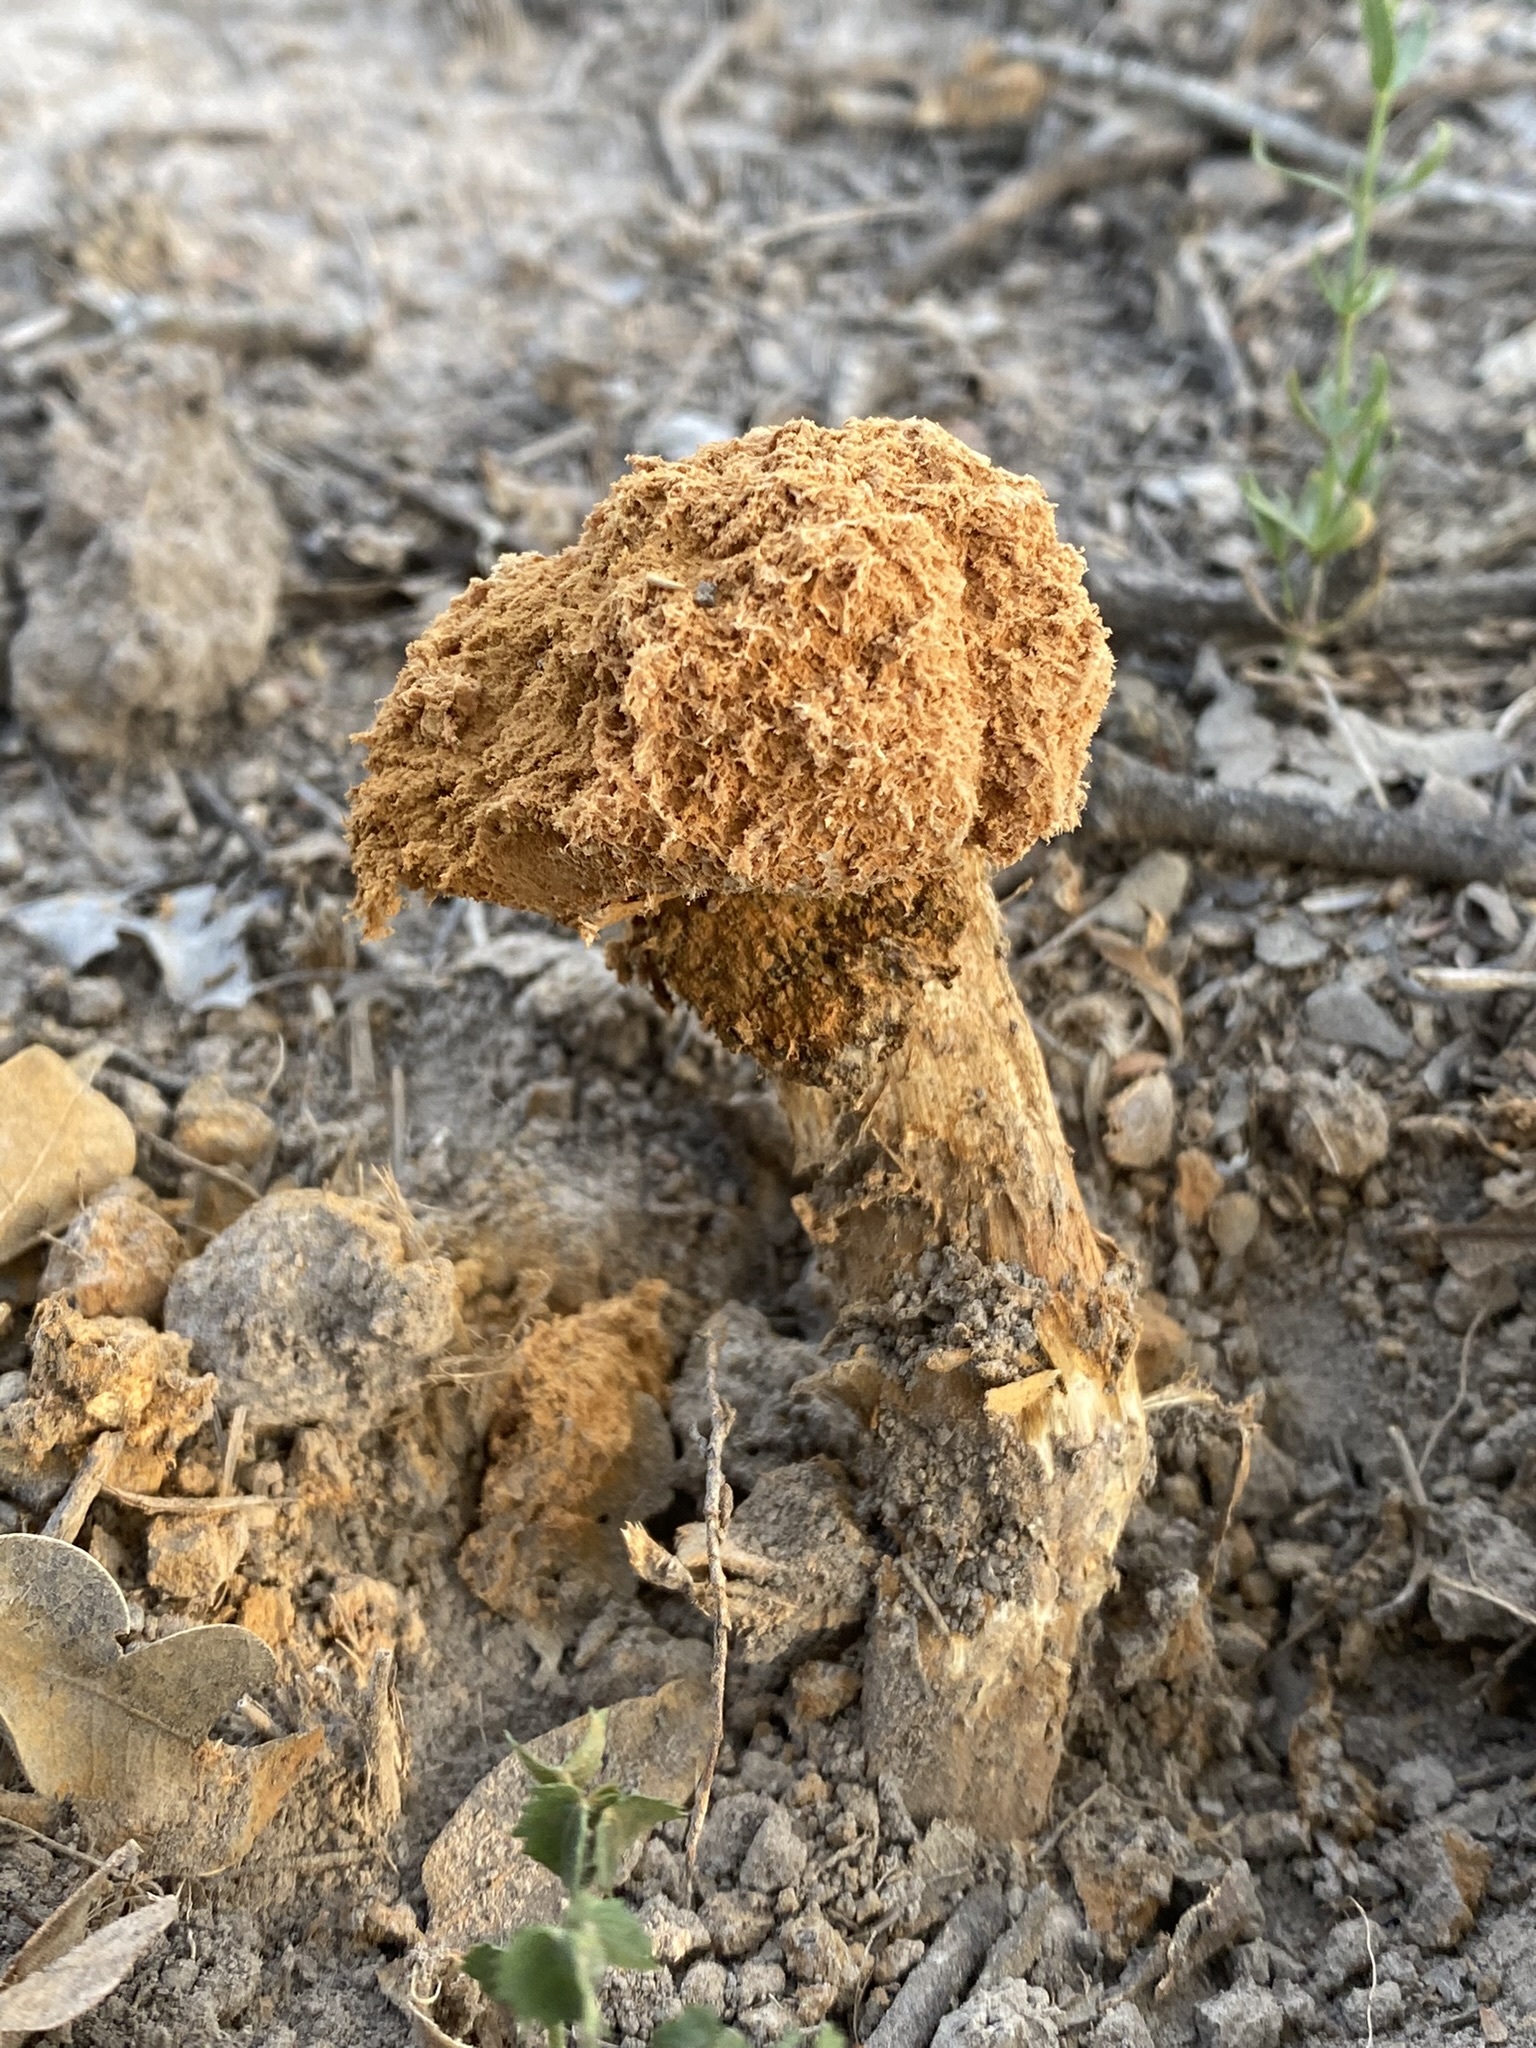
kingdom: Fungi
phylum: Basidiomycota
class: Agaricomycetes
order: Agaricales
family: Agaricaceae
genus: Battarrea
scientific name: Battarrea phalloides
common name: Sandy stiltball
